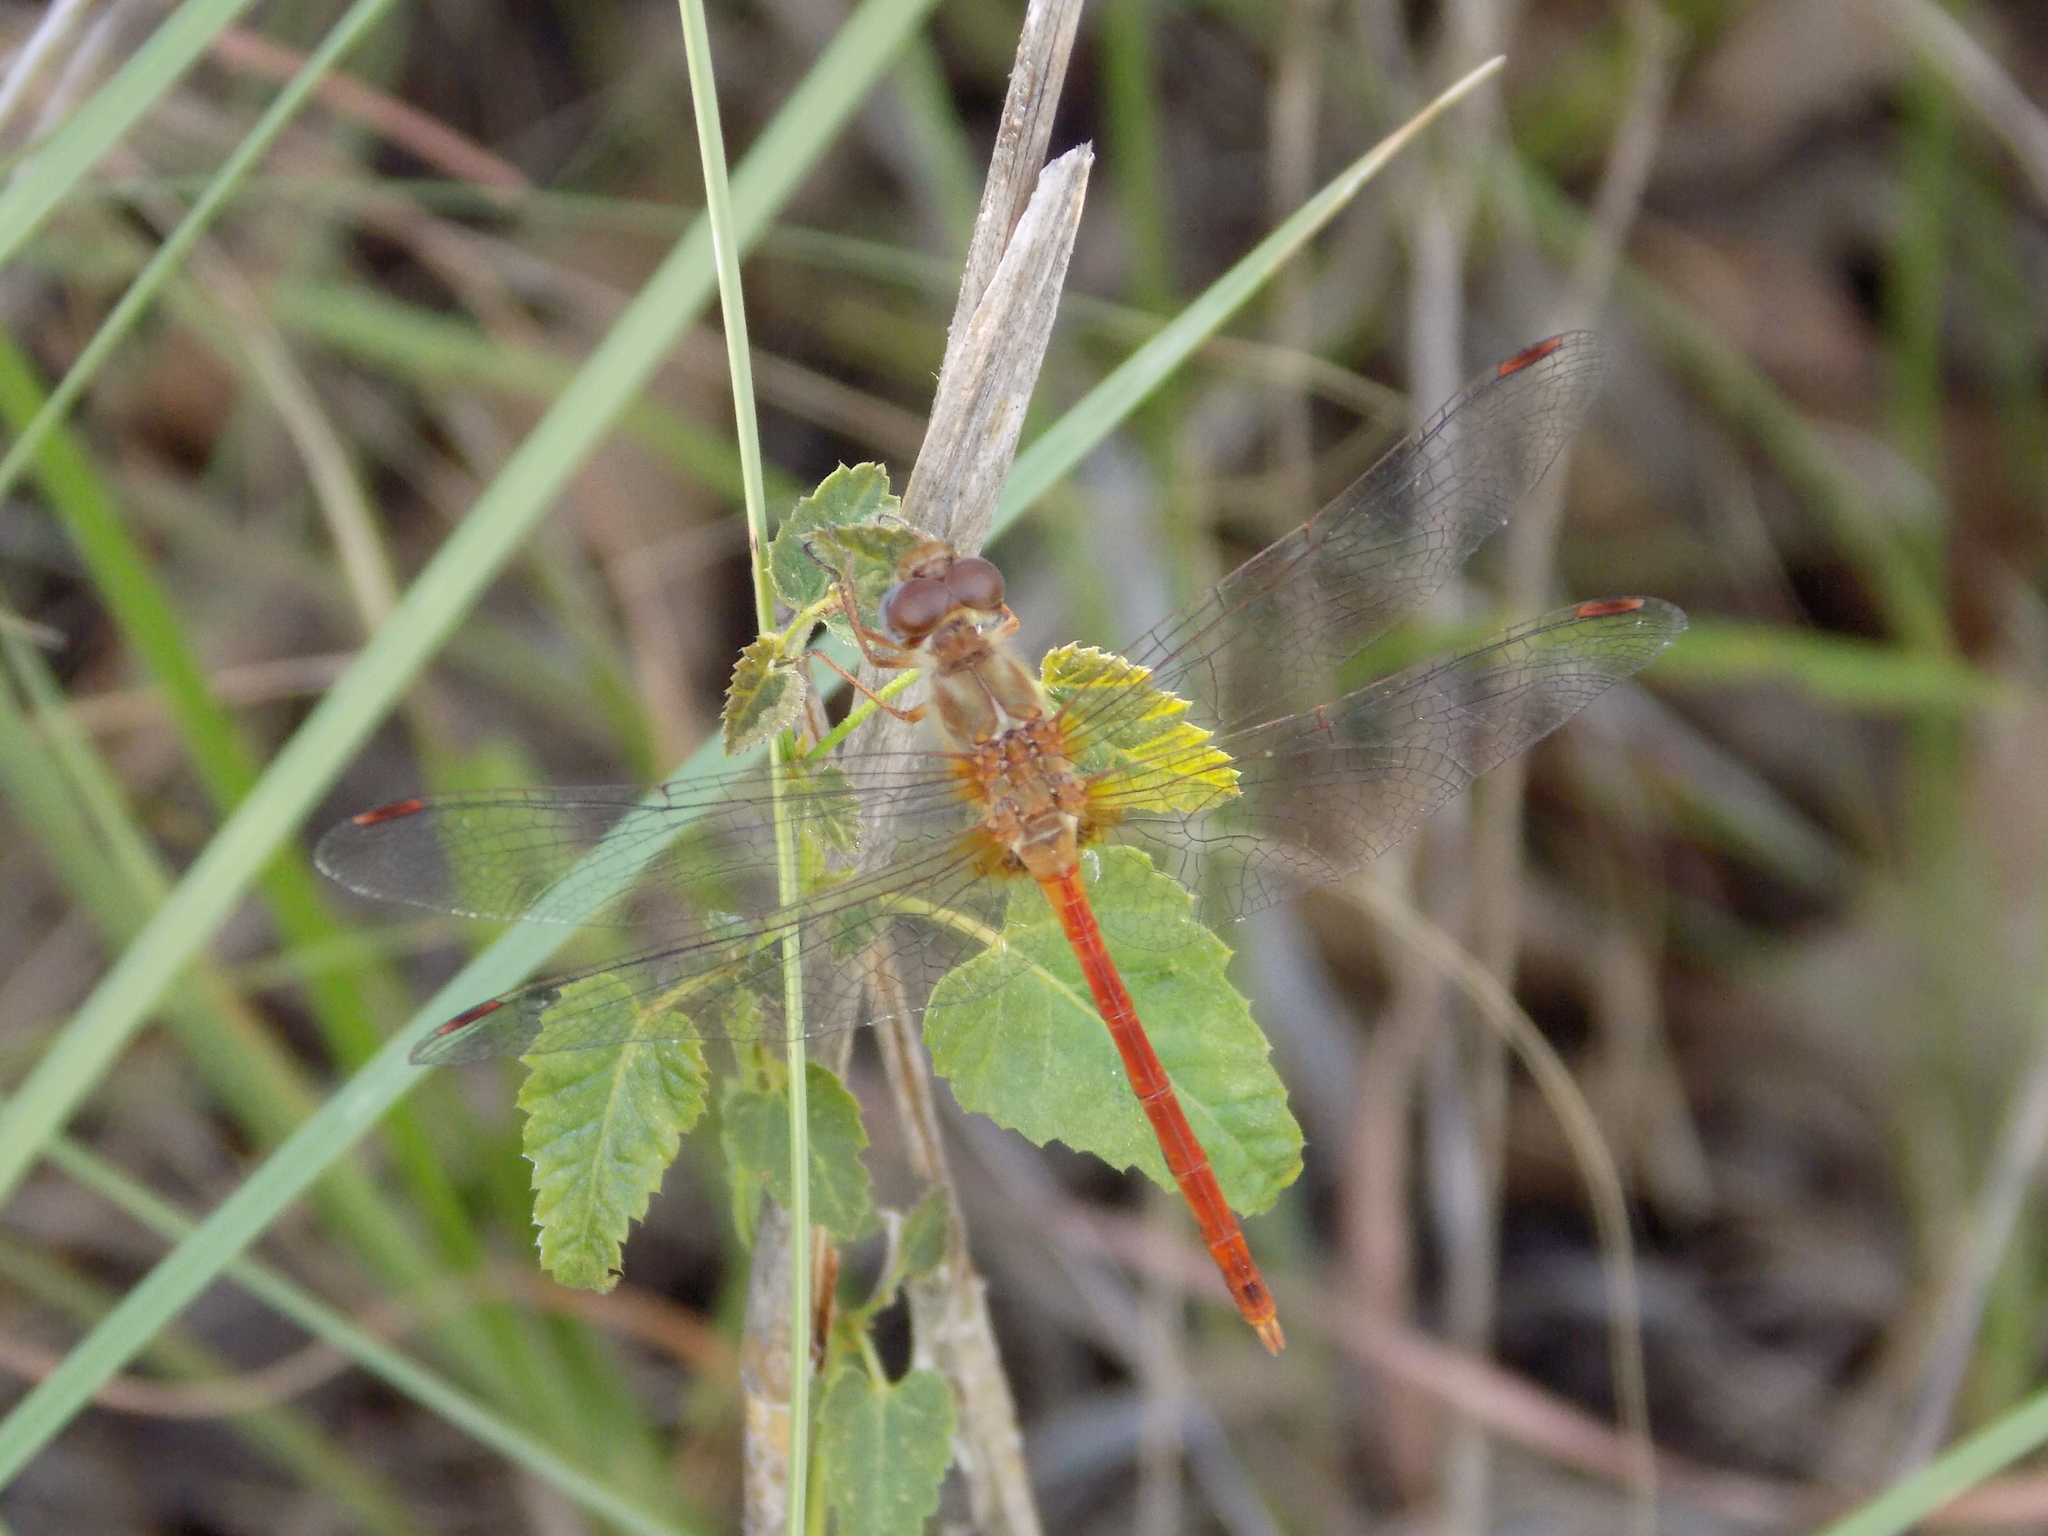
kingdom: Animalia
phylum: Arthropoda
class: Insecta
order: Odonata
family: Libellulidae
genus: Sympetrum
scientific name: Sympetrum vicinum
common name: Autumn meadowhawk
